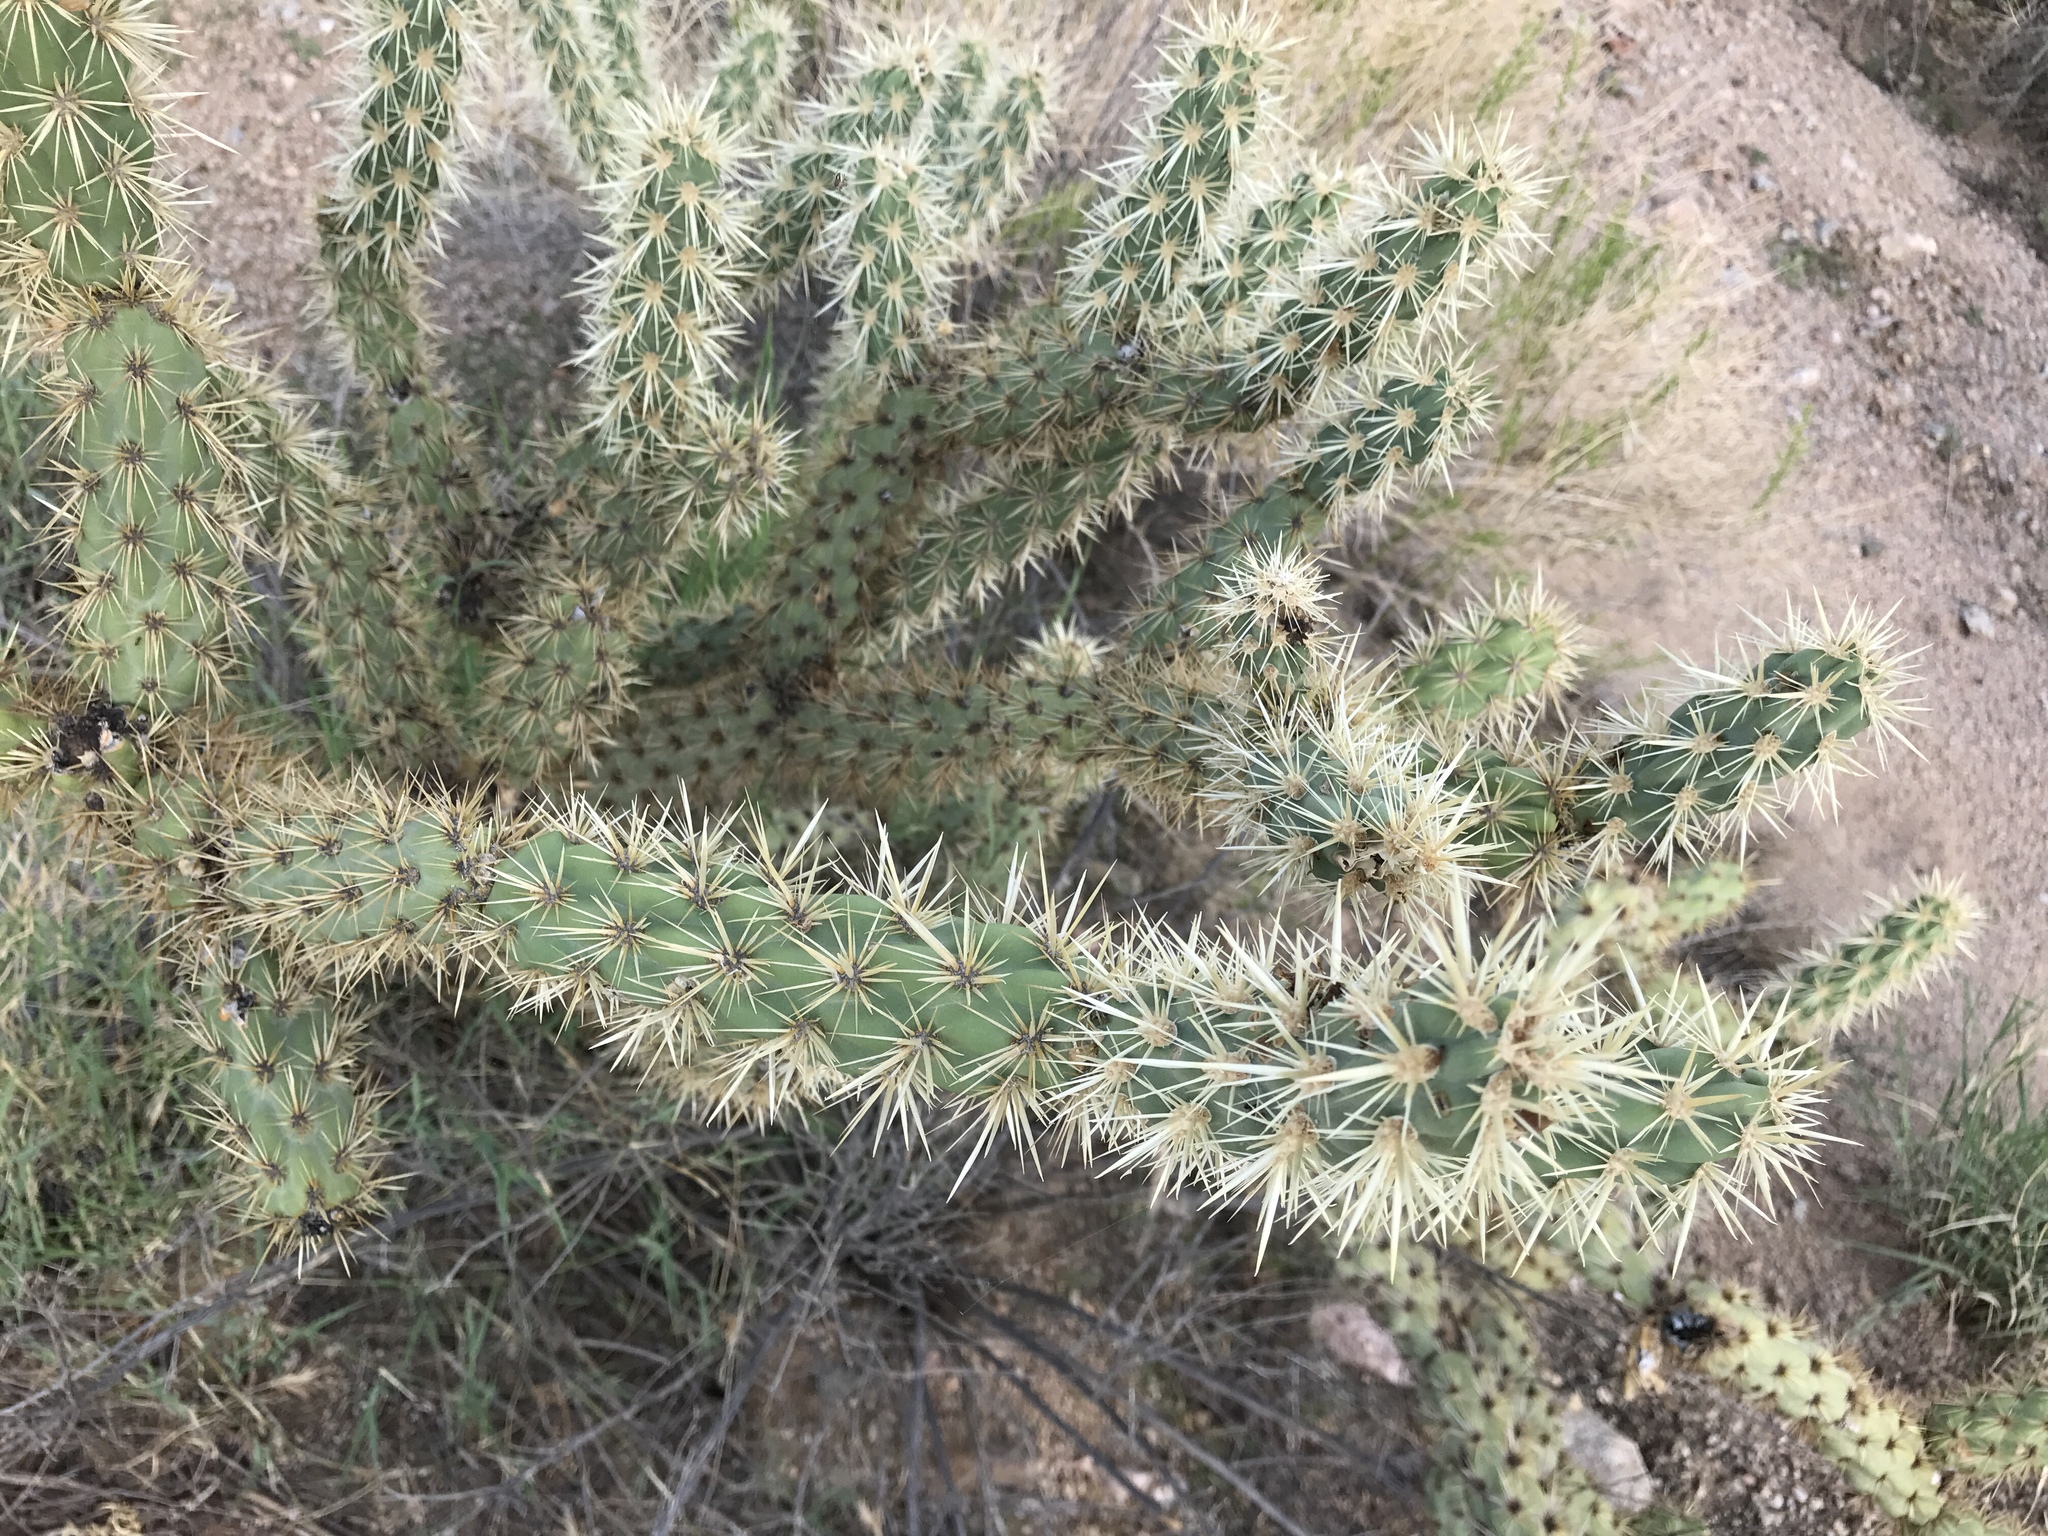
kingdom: Plantae
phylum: Tracheophyta
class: Magnoliopsida
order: Caryophyllales
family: Cactaceae
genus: Cylindropuntia
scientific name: Cylindropuntia acanthocarpa
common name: Buckhorn cholla
